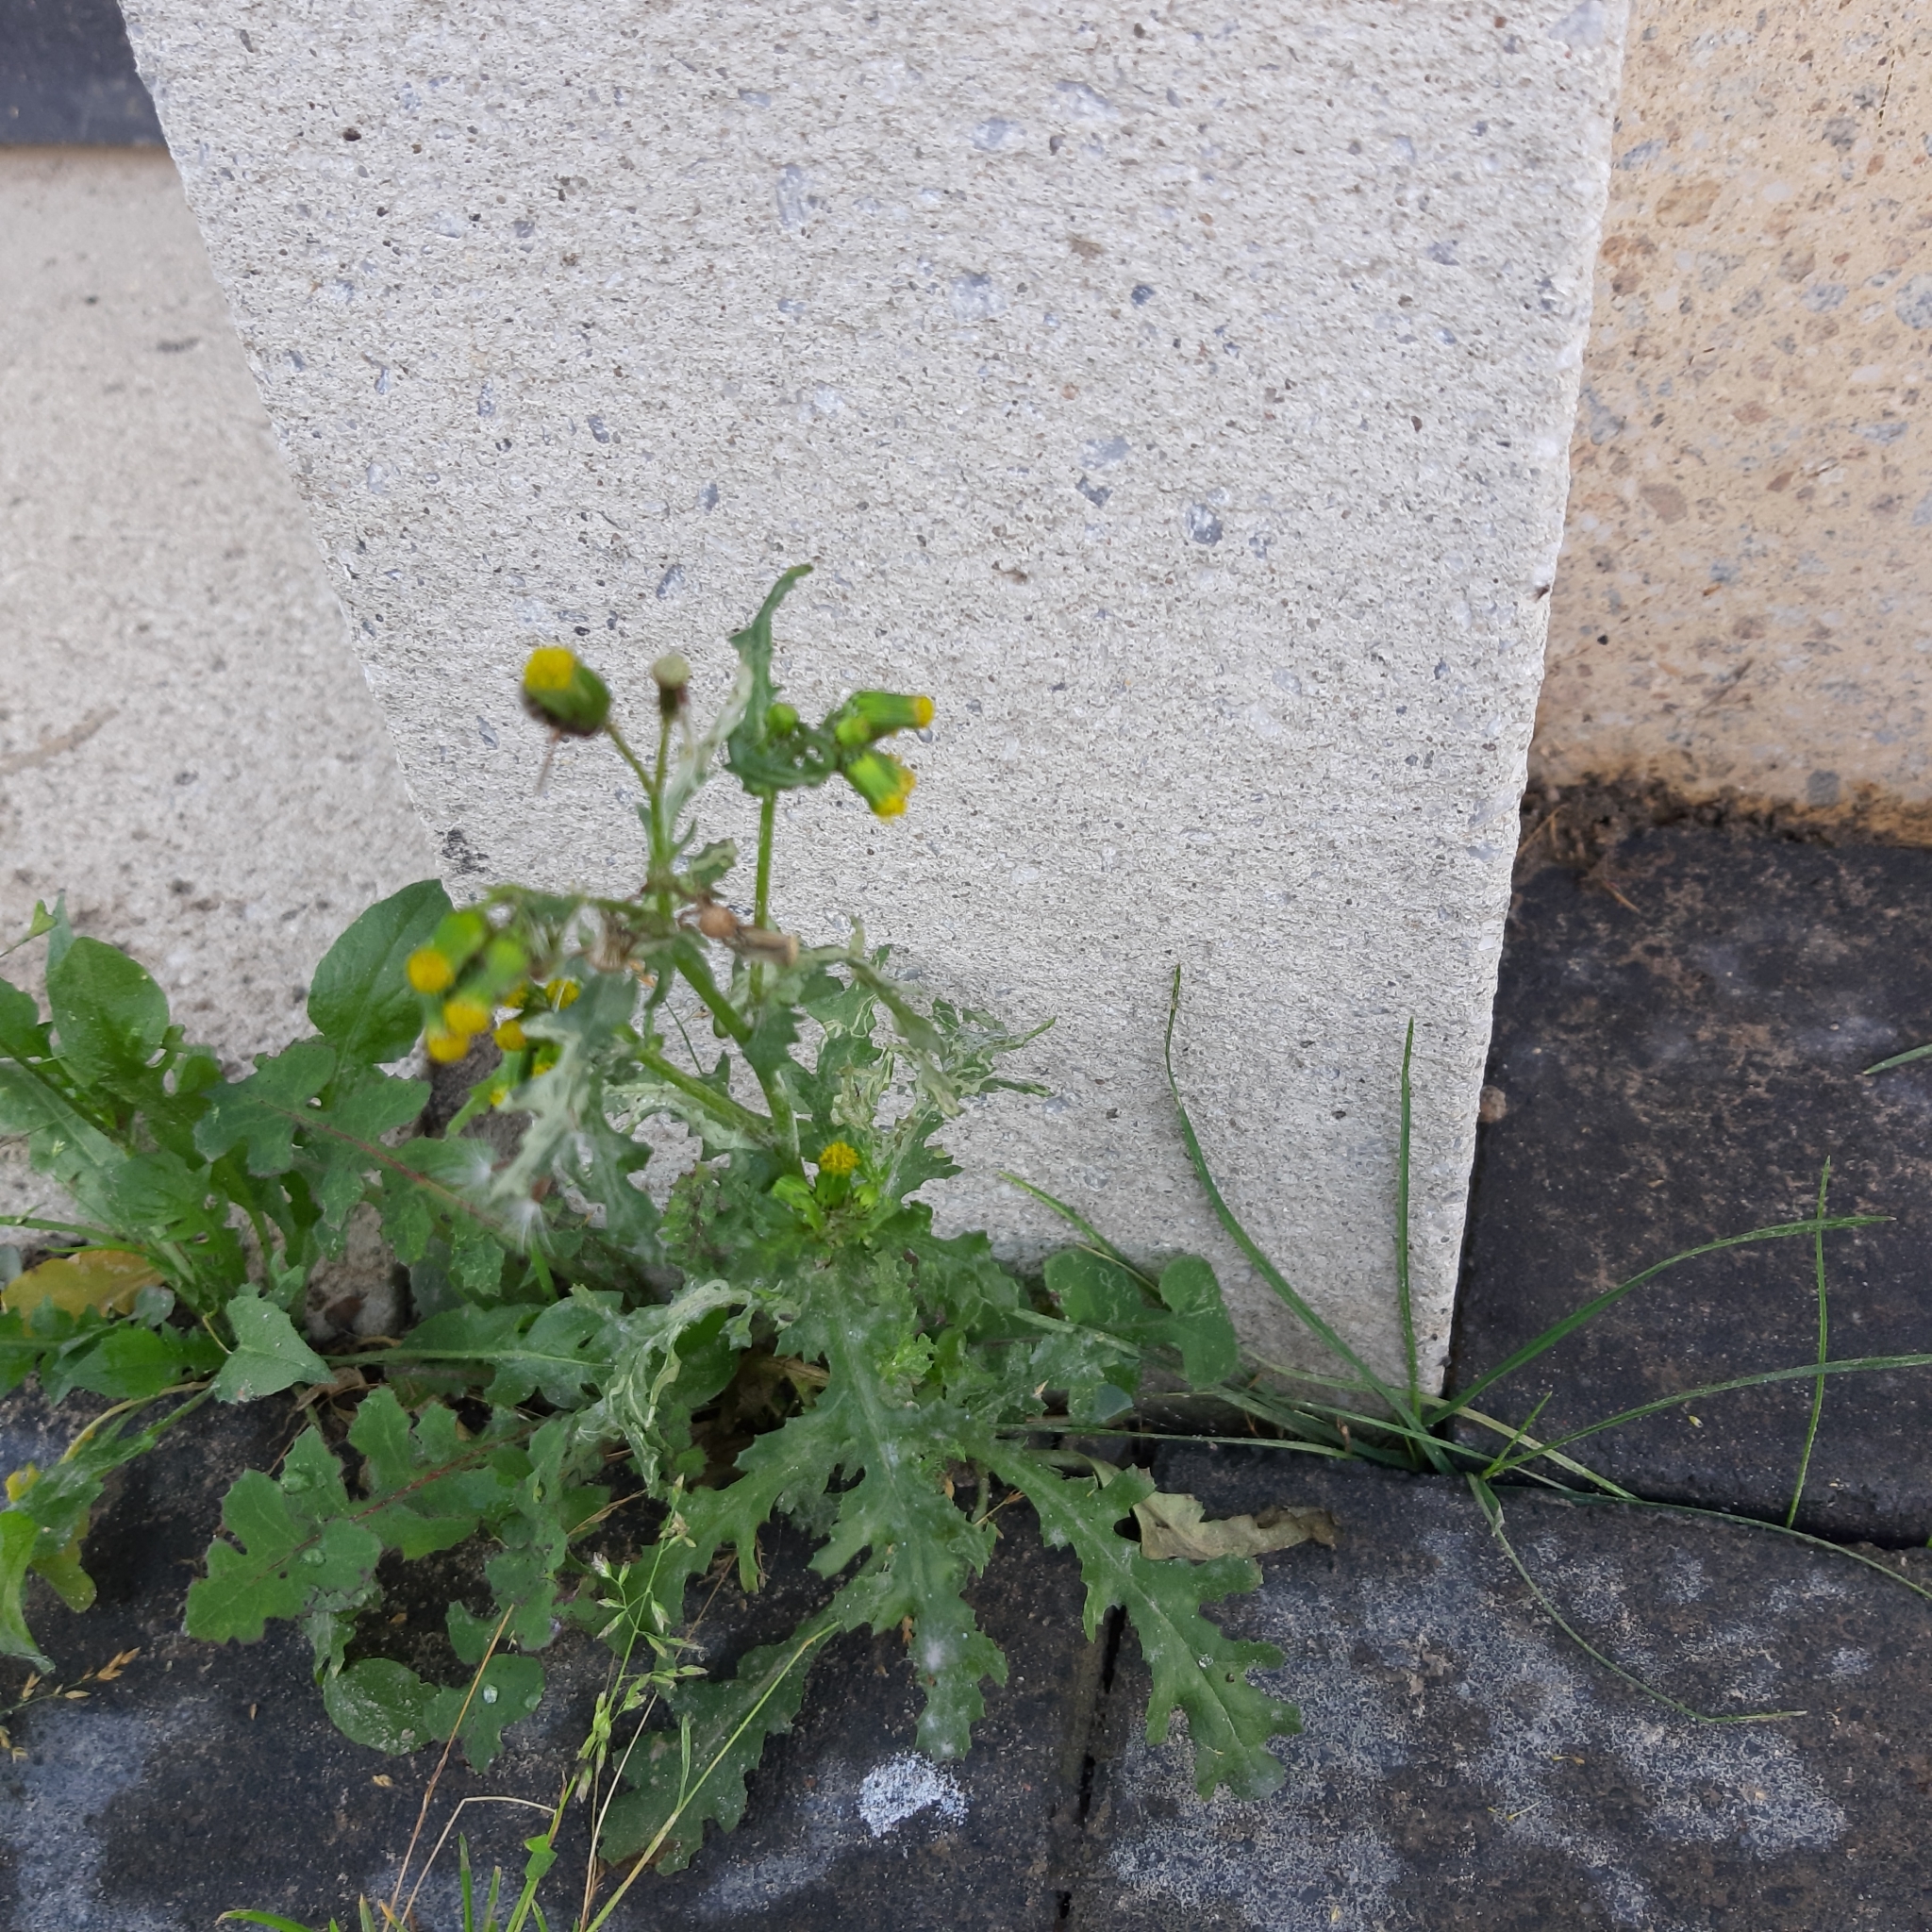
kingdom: Plantae
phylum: Tracheophyta
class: Magnoliopsida
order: Asterales
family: Asteraceae
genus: Senecio
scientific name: Senecio vulgaris
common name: Old-man-in-the-spring
